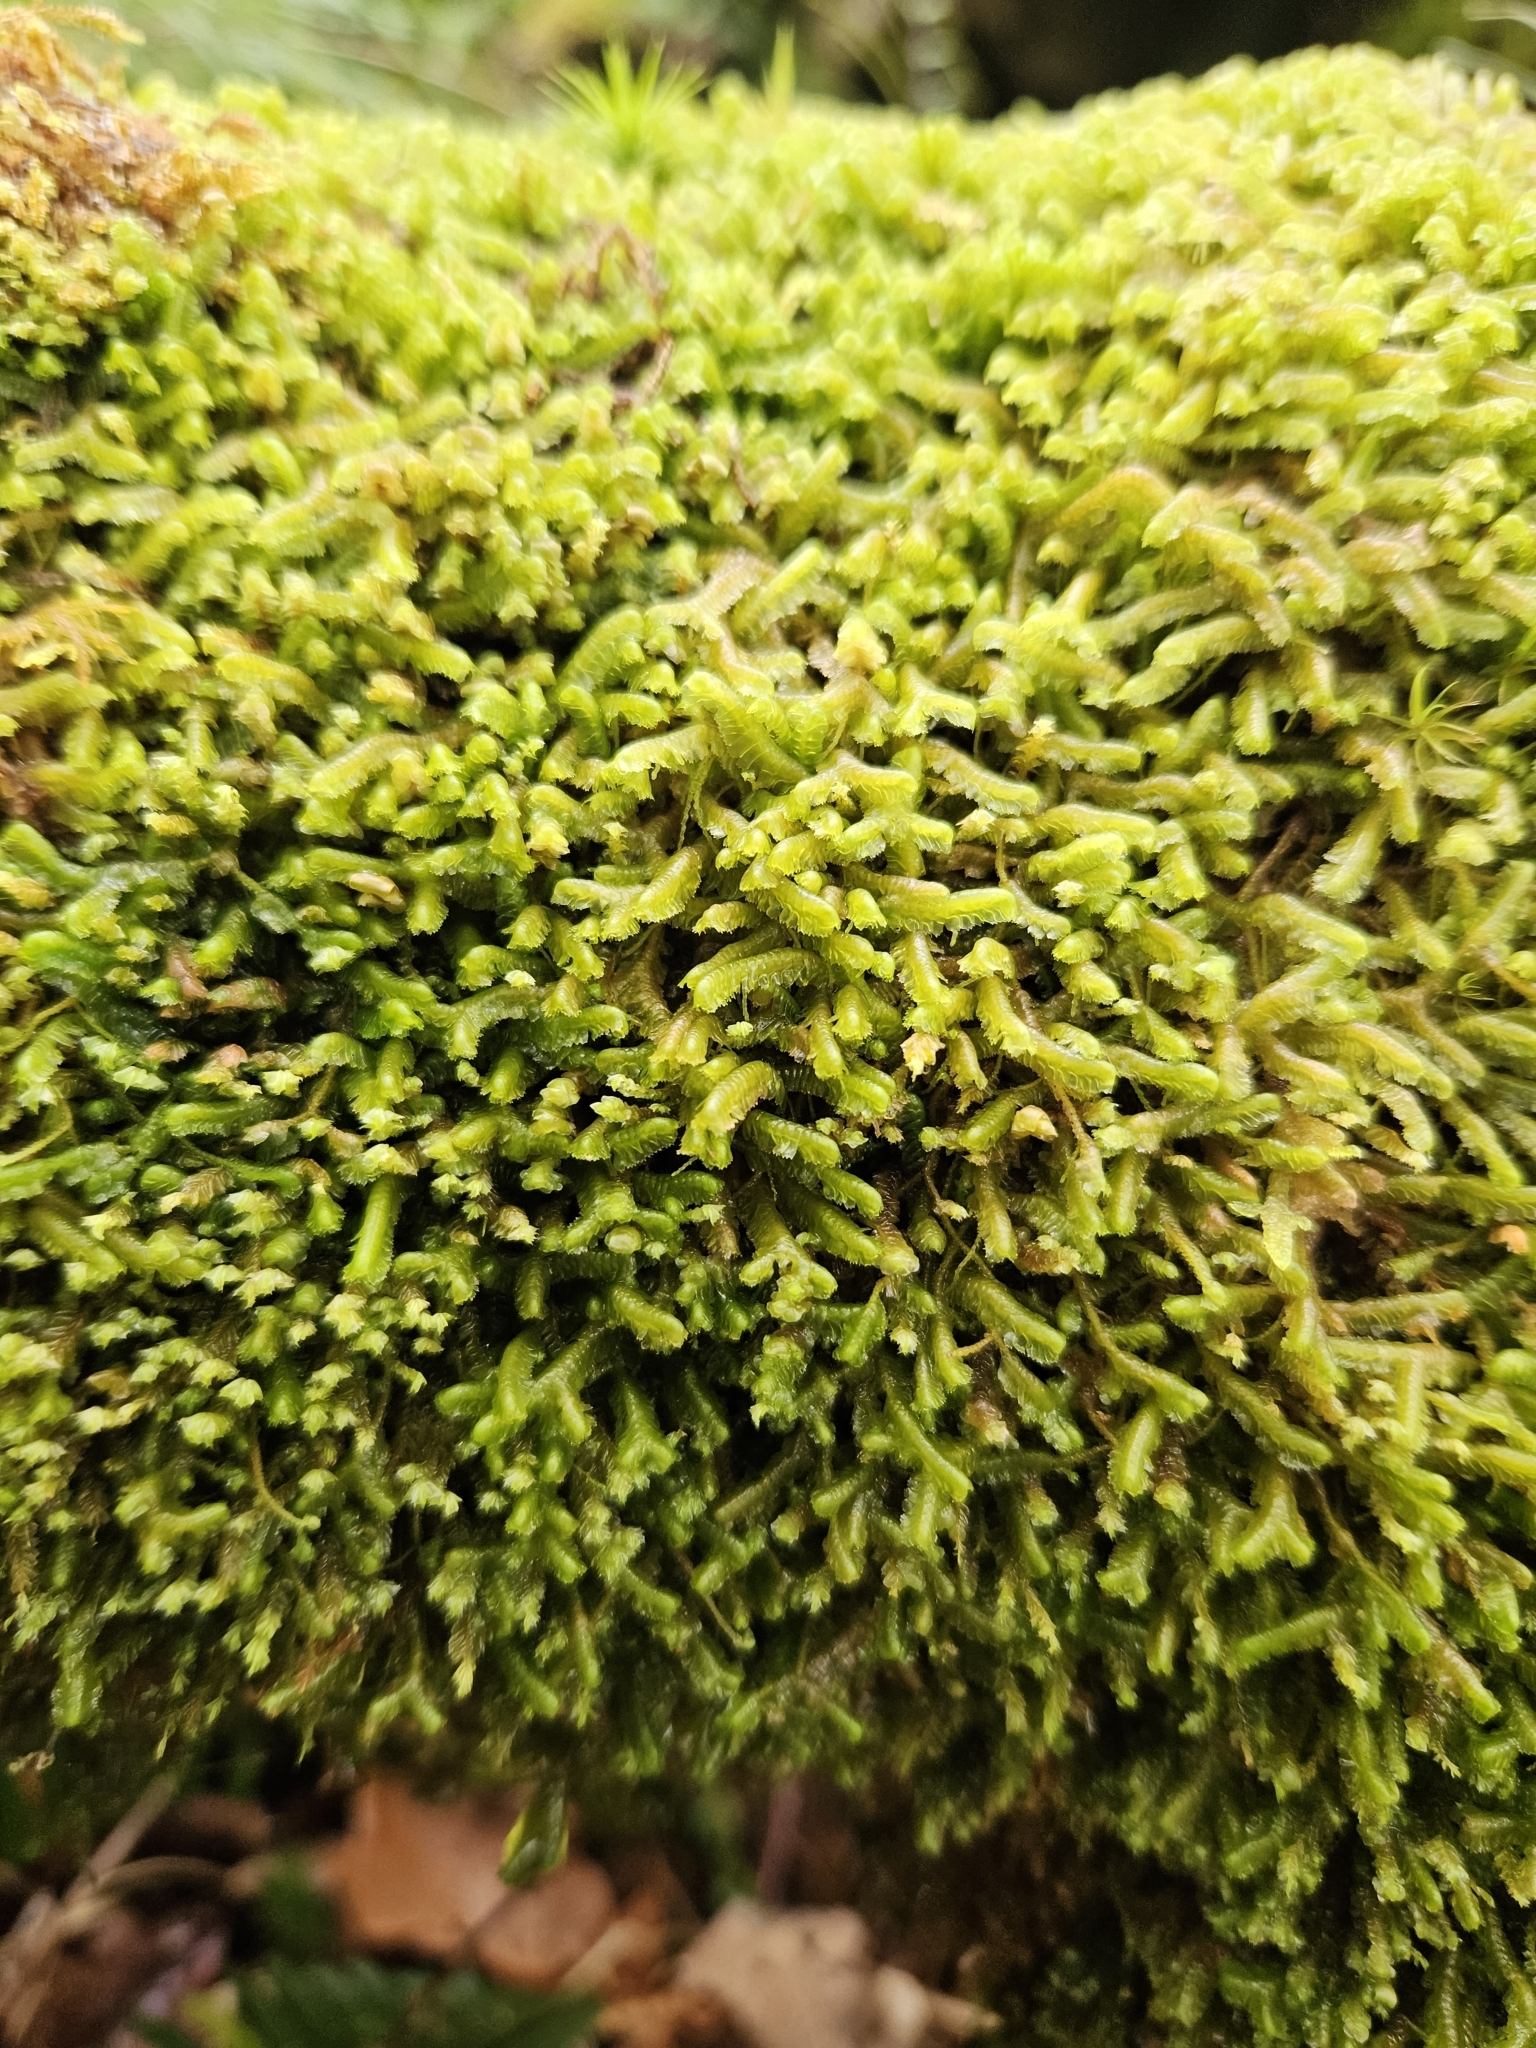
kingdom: Plantae
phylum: Marchantiophyta
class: Jungermanniopsida
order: Jungermanniales
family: Lepidoziaceae
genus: Bazzania
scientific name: Bazzania trilobata
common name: Three-lobed whipwort
